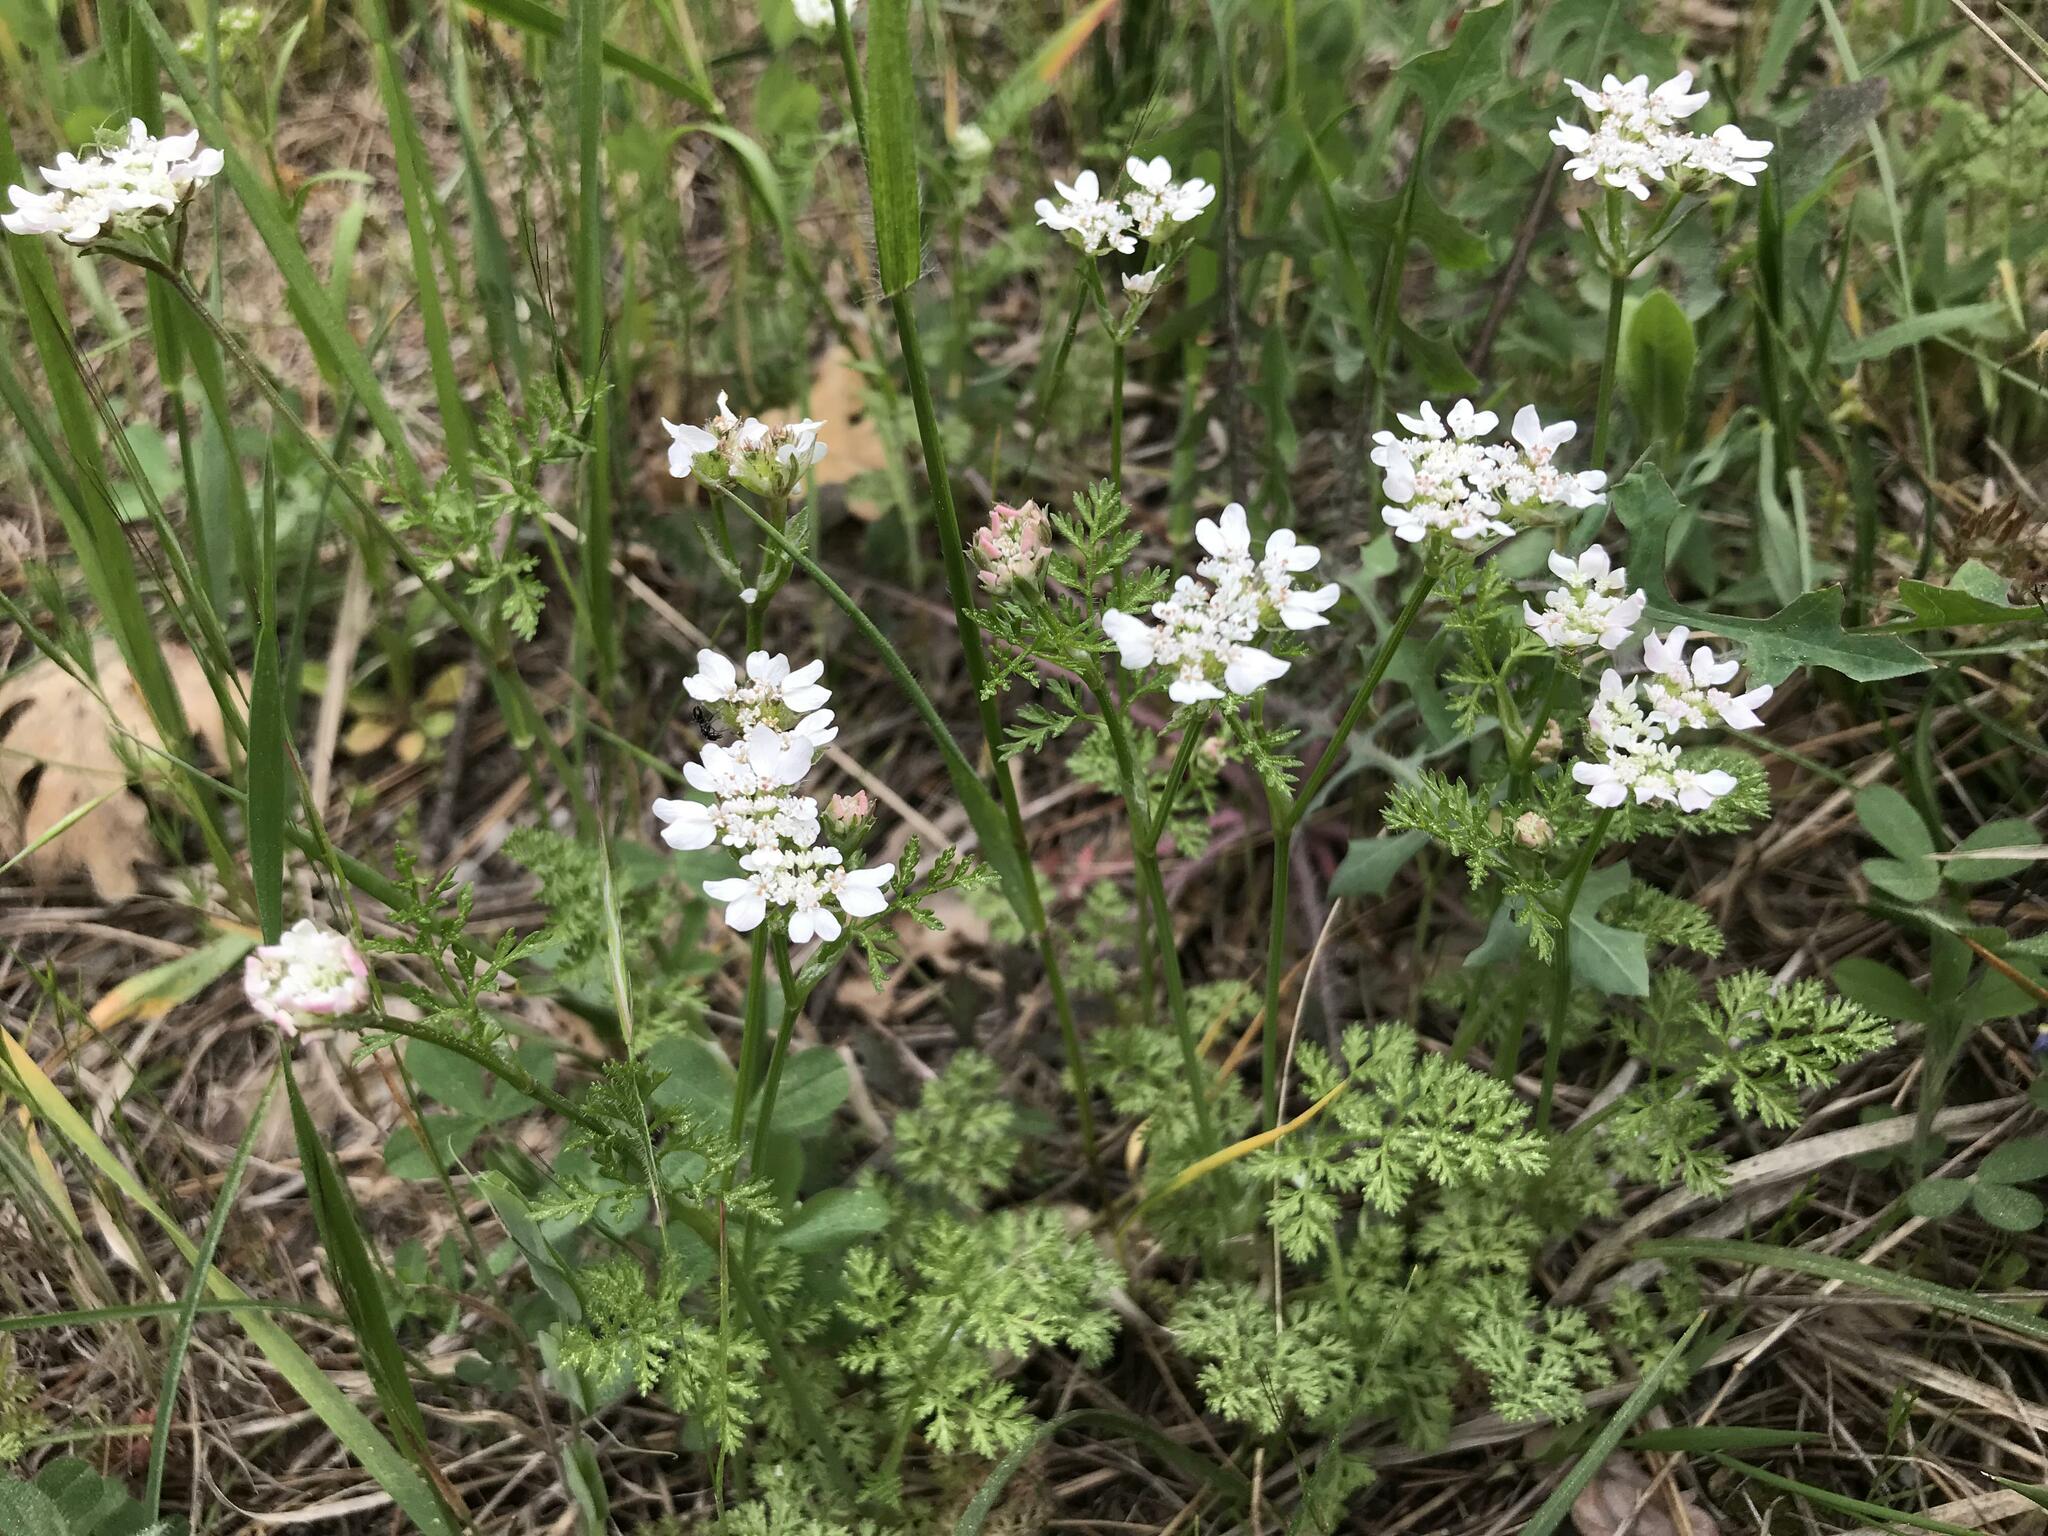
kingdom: Plantae
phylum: Tracheophyta
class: Magnoliopsida
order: Apiales
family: Apiaceae
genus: Orlaya
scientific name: Orlaya daucoides
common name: Flat-fruit orlaya
